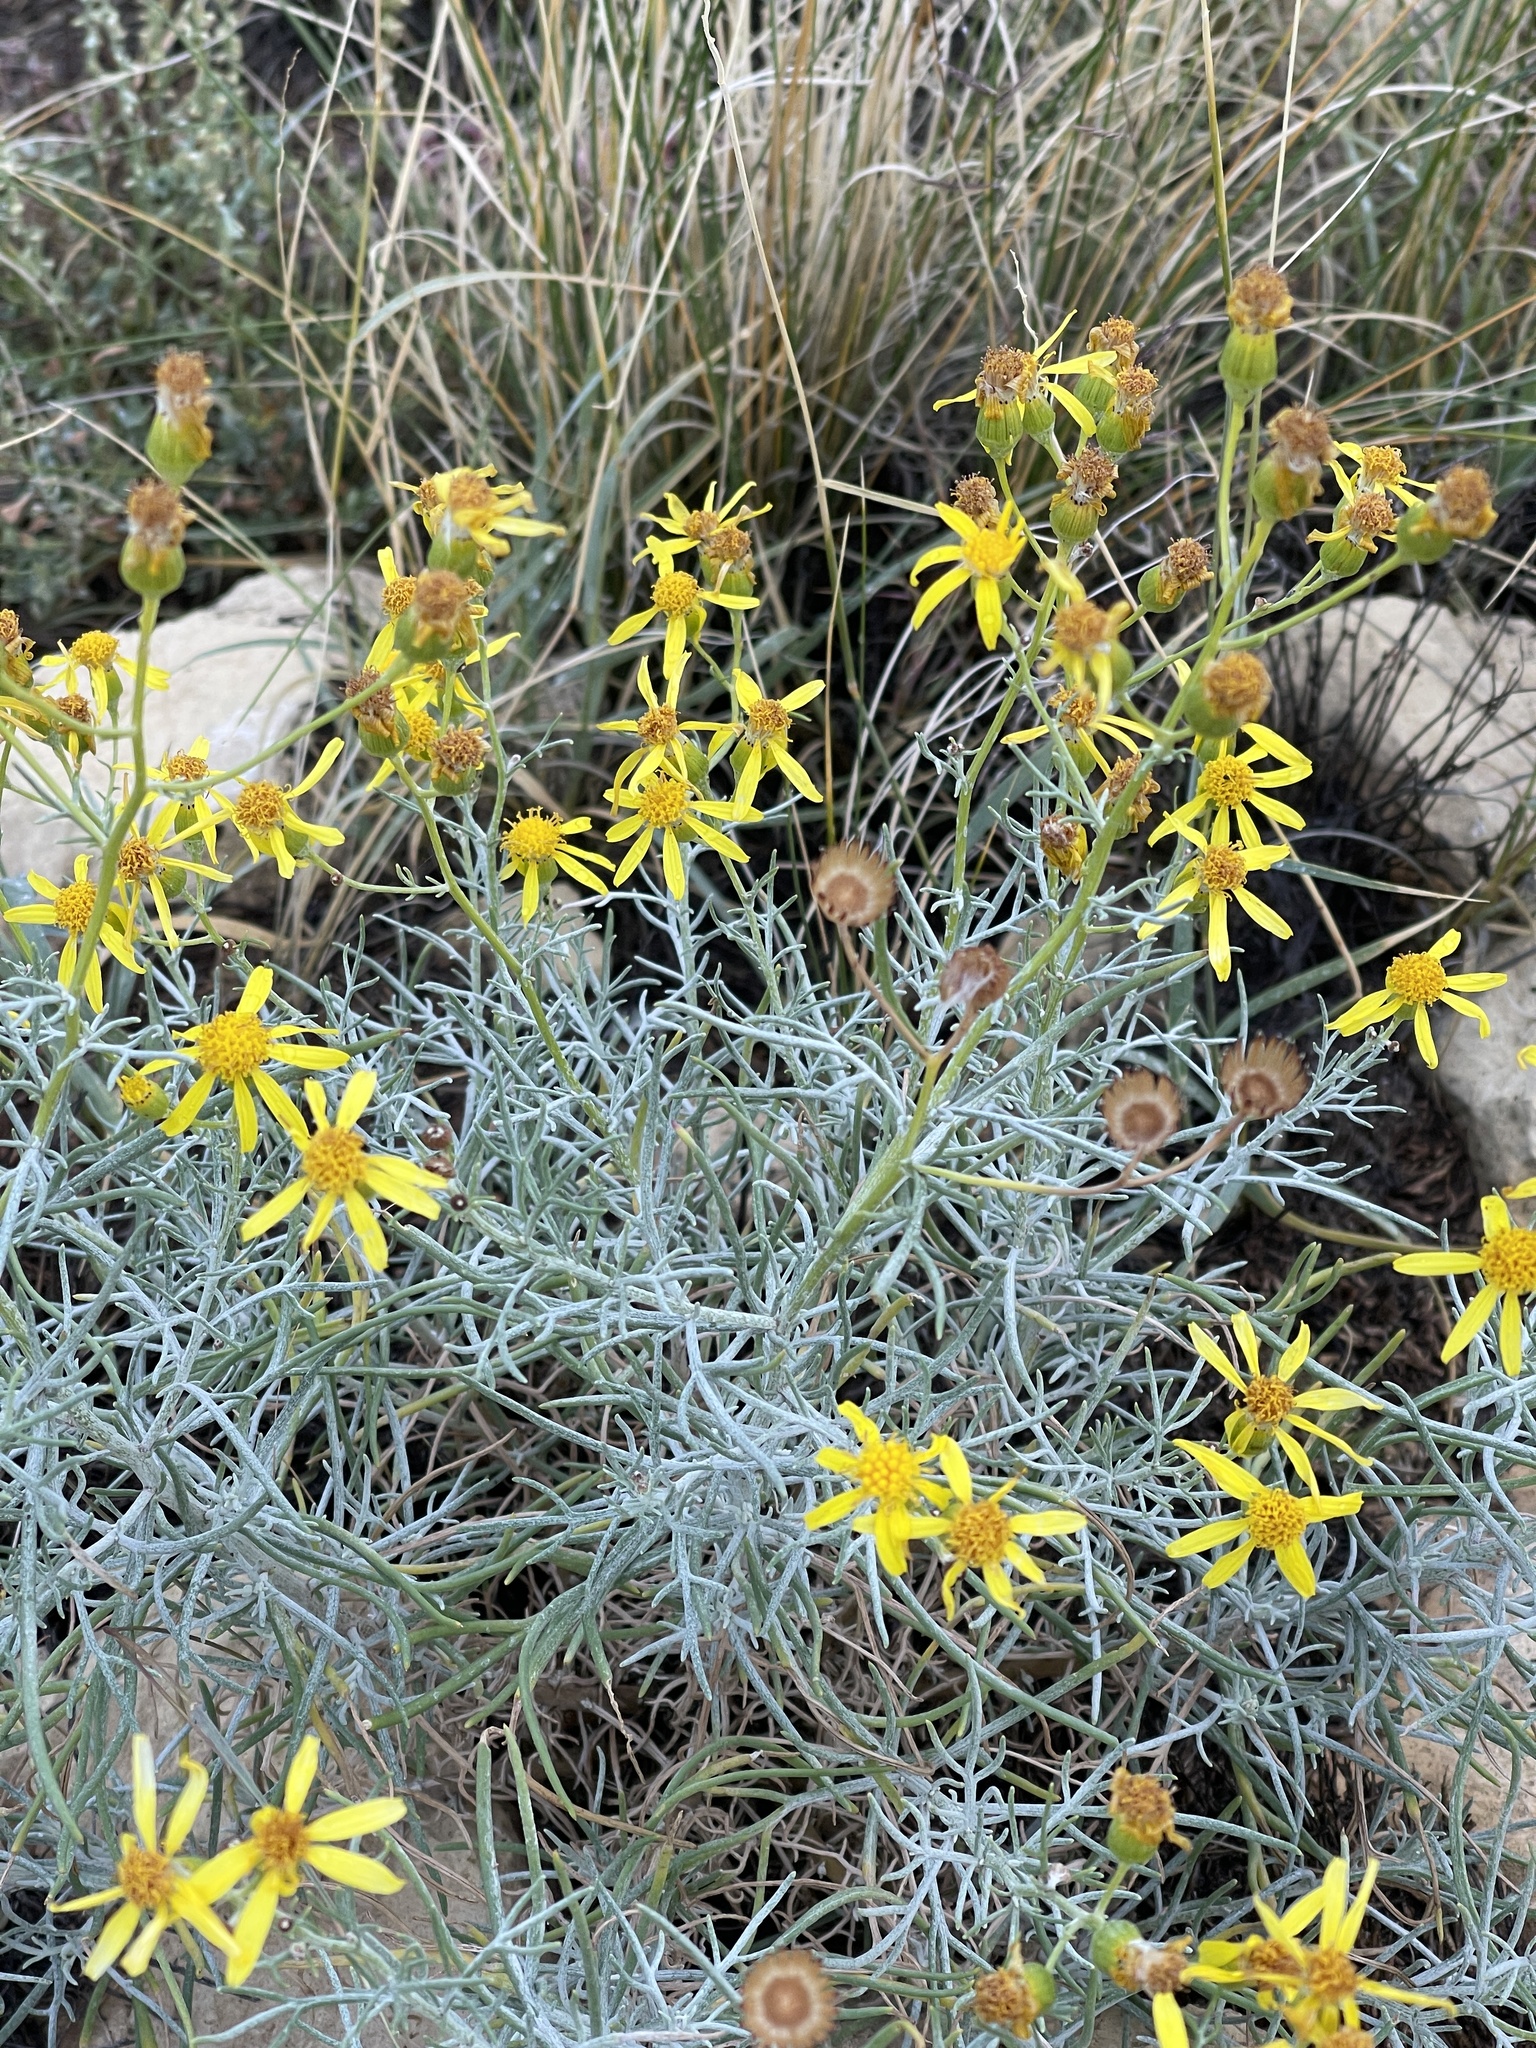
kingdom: Plantae
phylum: Tracheophyta
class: Magnoliopsida
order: Asterales
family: Asteraceae
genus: Senecio
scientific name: Senecio flaccidus
